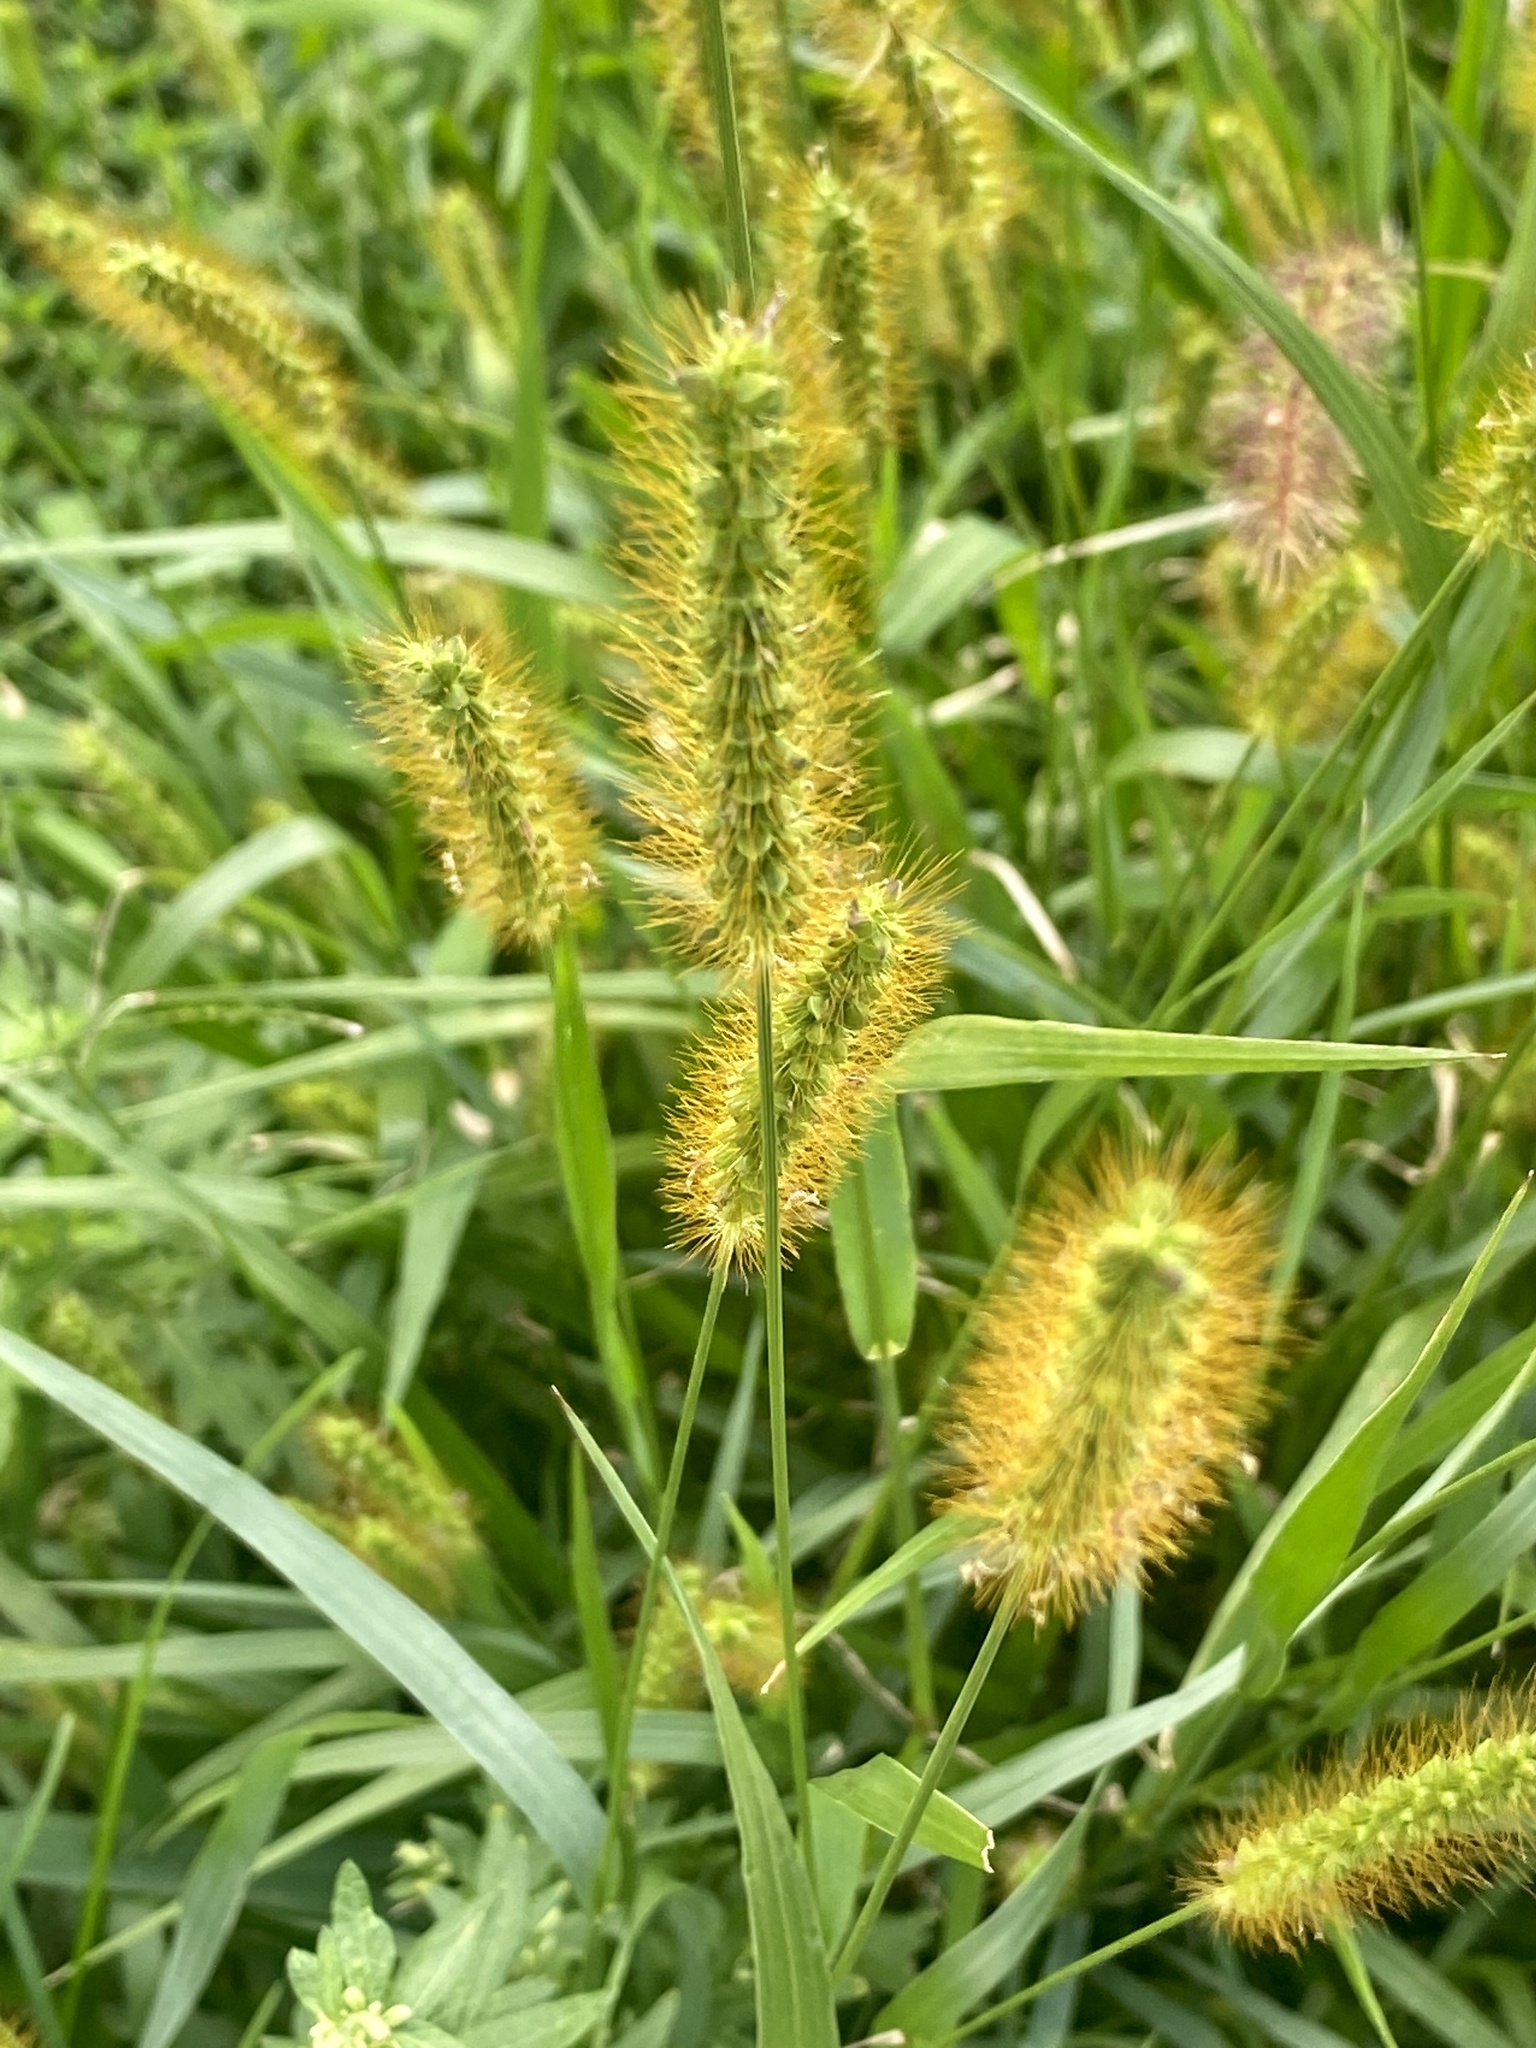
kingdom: Plantae
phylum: Tracheophyta
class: Liliopsida
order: Poales
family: Poaceae
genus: Setaria
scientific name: Setaria pumila
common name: Yellow bristle-grass
